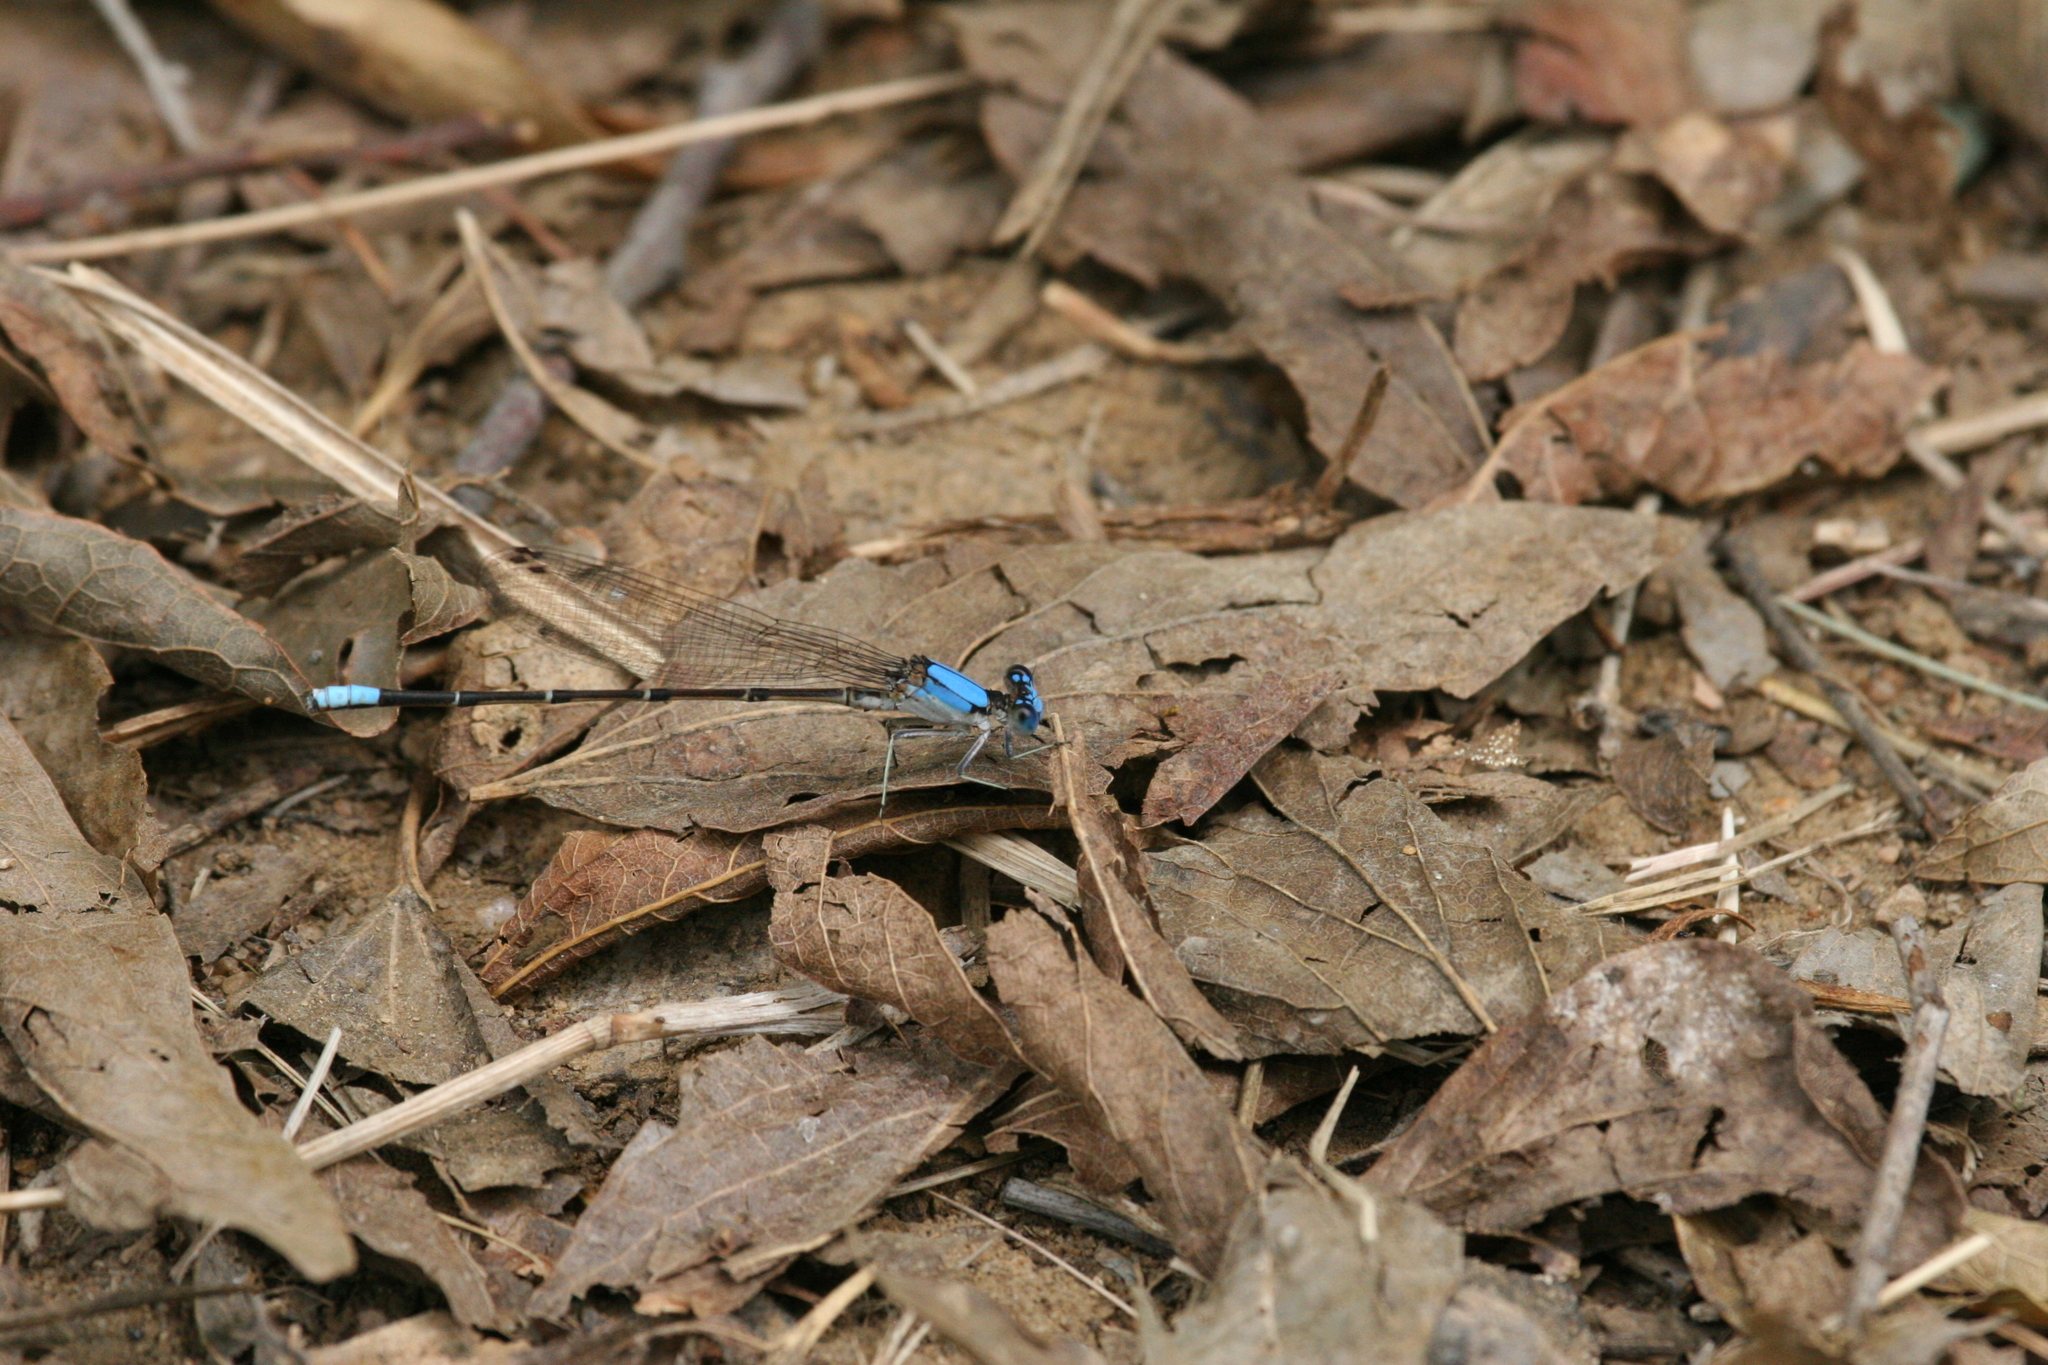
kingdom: Animalia
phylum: Arthropoda
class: Insecta
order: Odonata
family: Coenagrionidae
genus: Argia
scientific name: Argia apicalis
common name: Blue-fronted dancer
